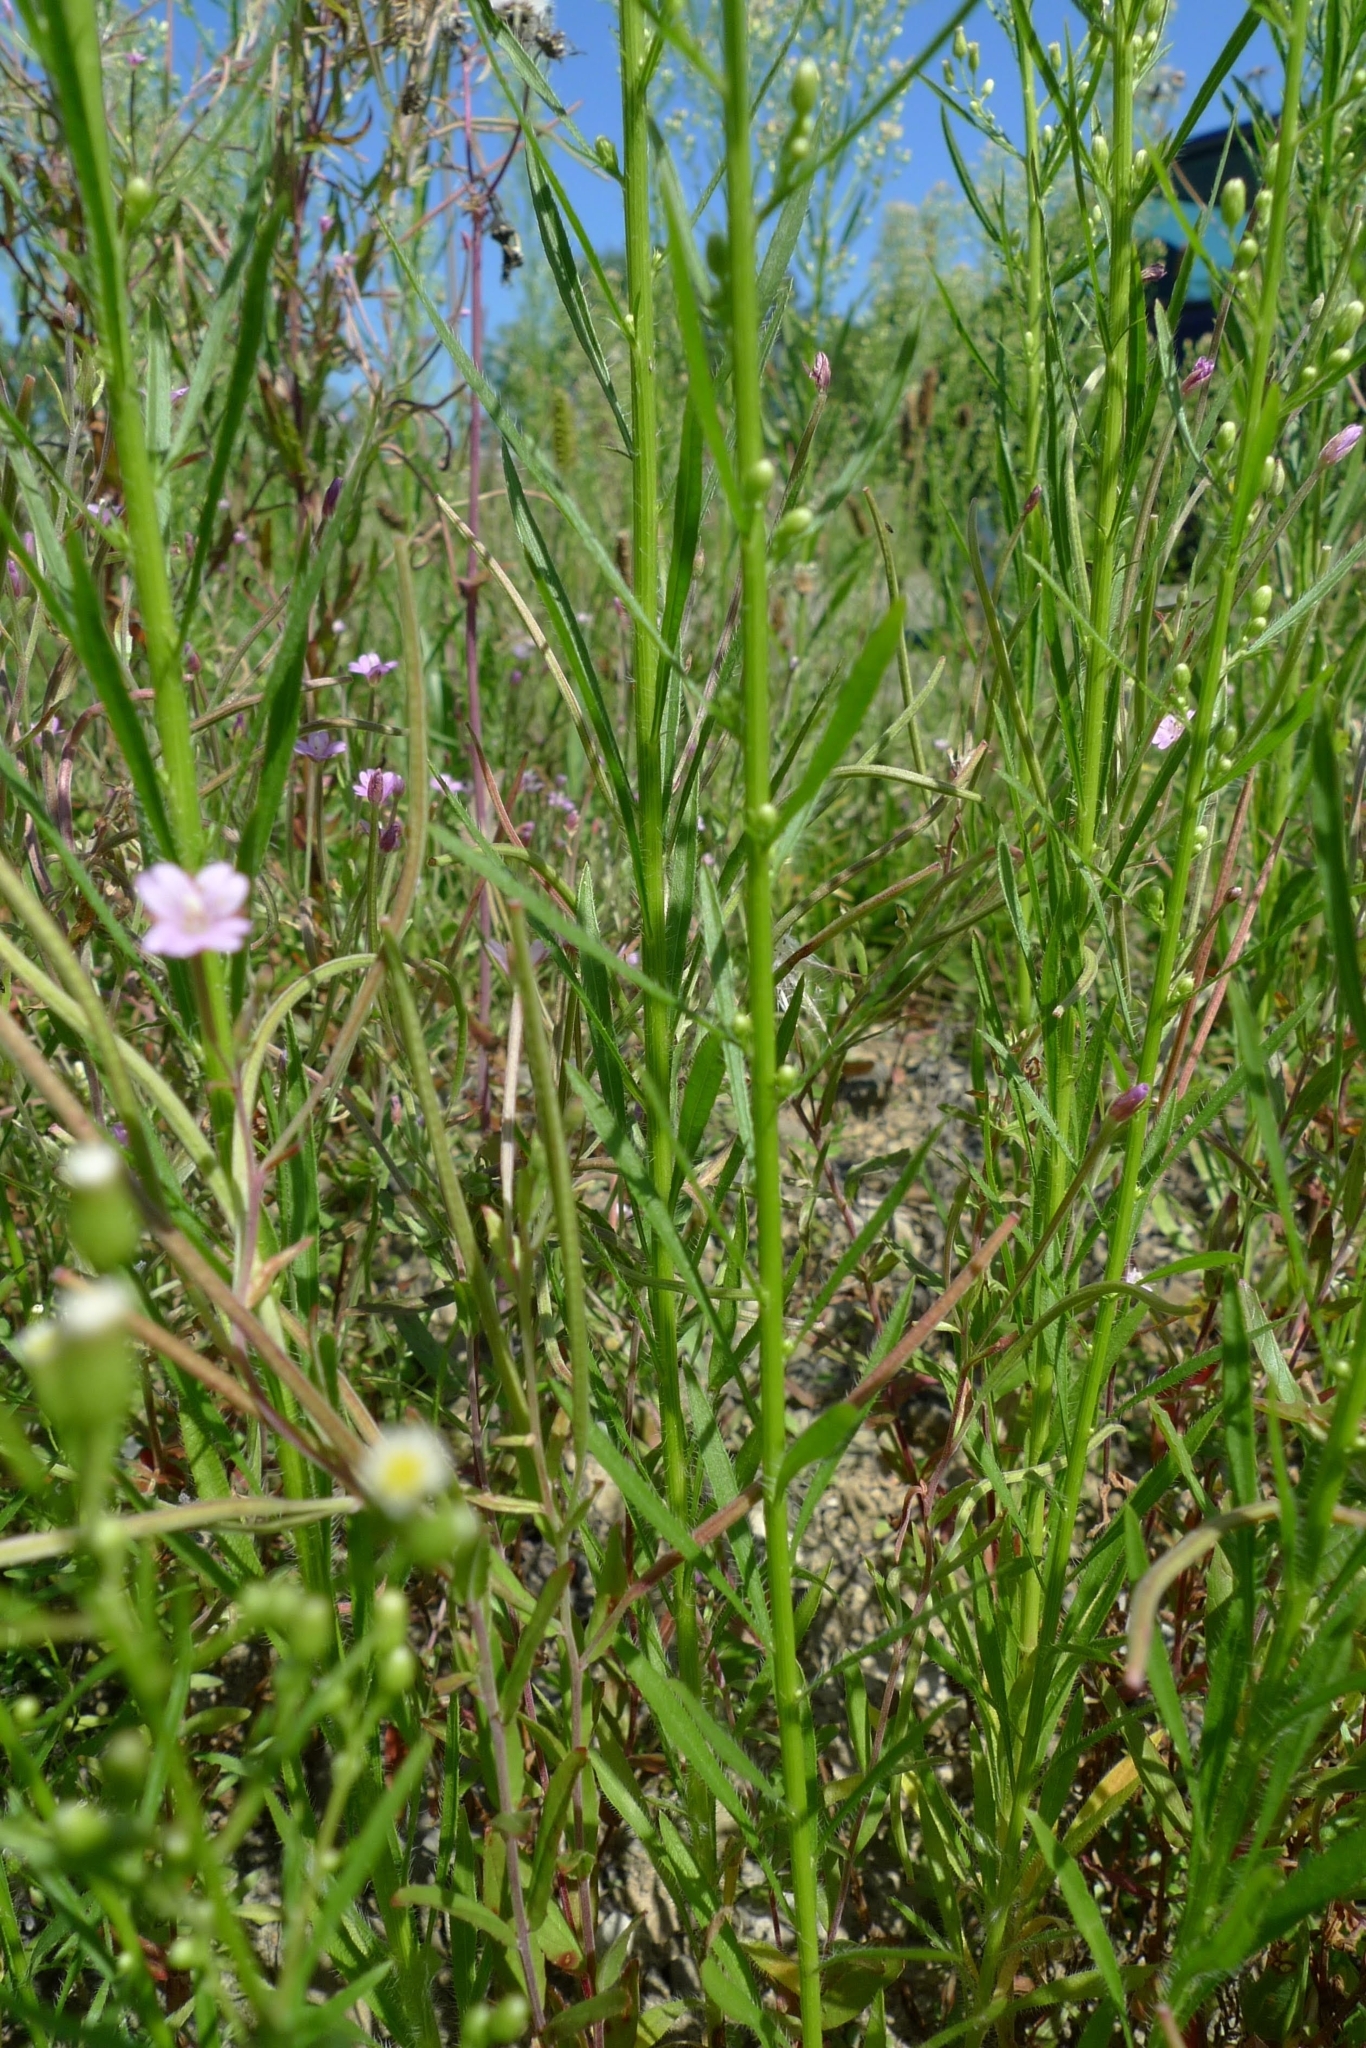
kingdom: Plantae
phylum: Tracheophyta
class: Magnoliopsida
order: Asterales
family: Asteraceae
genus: Erigeron
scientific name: Erigeron canadensis
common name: Canadian fleabane
